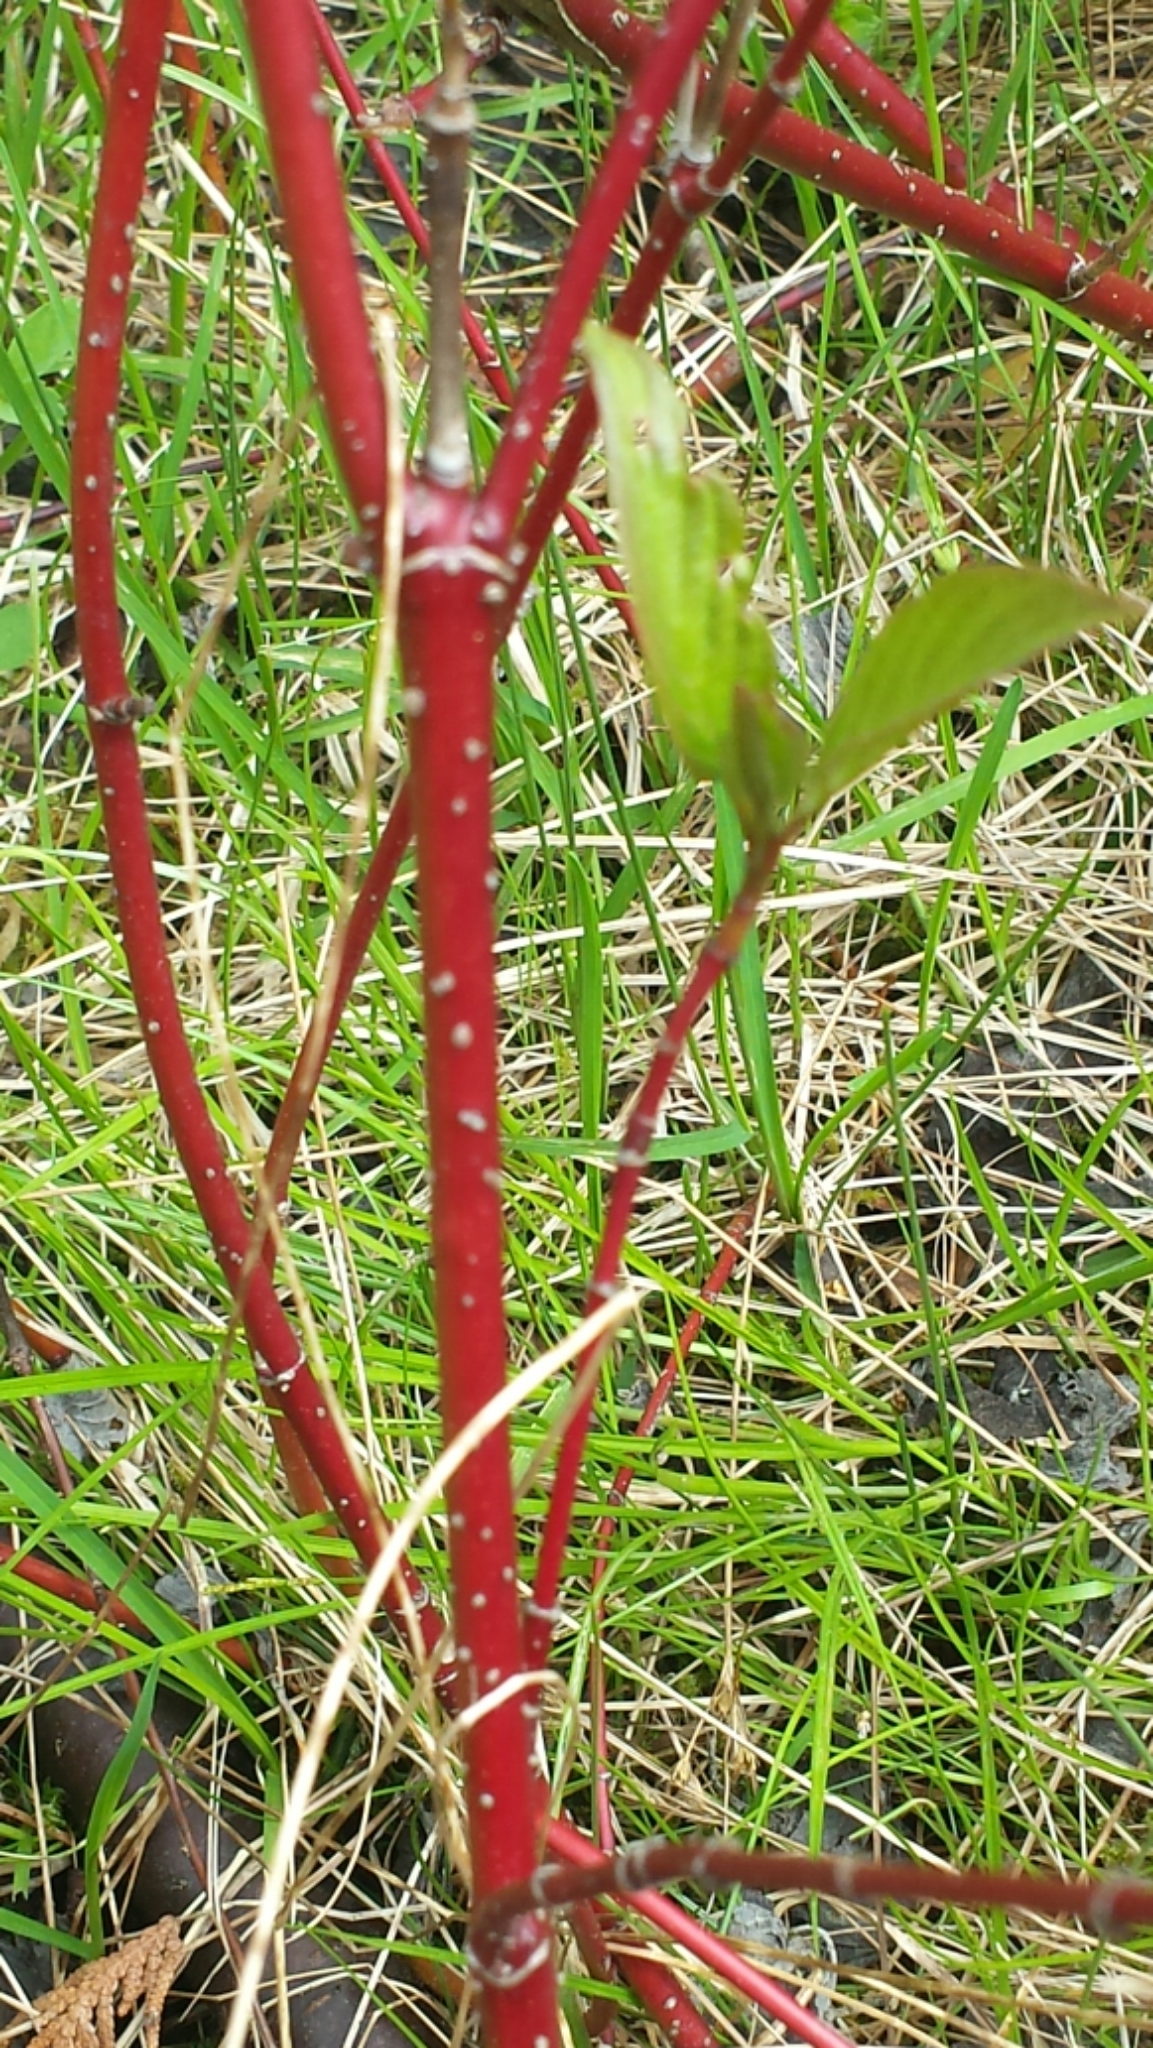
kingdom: Plantae
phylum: Tracheophyta
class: Magnoliopsida
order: Cornales
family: Cornaceae
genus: Cornus
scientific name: Cornus sericea
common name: Red-osier dogwood
